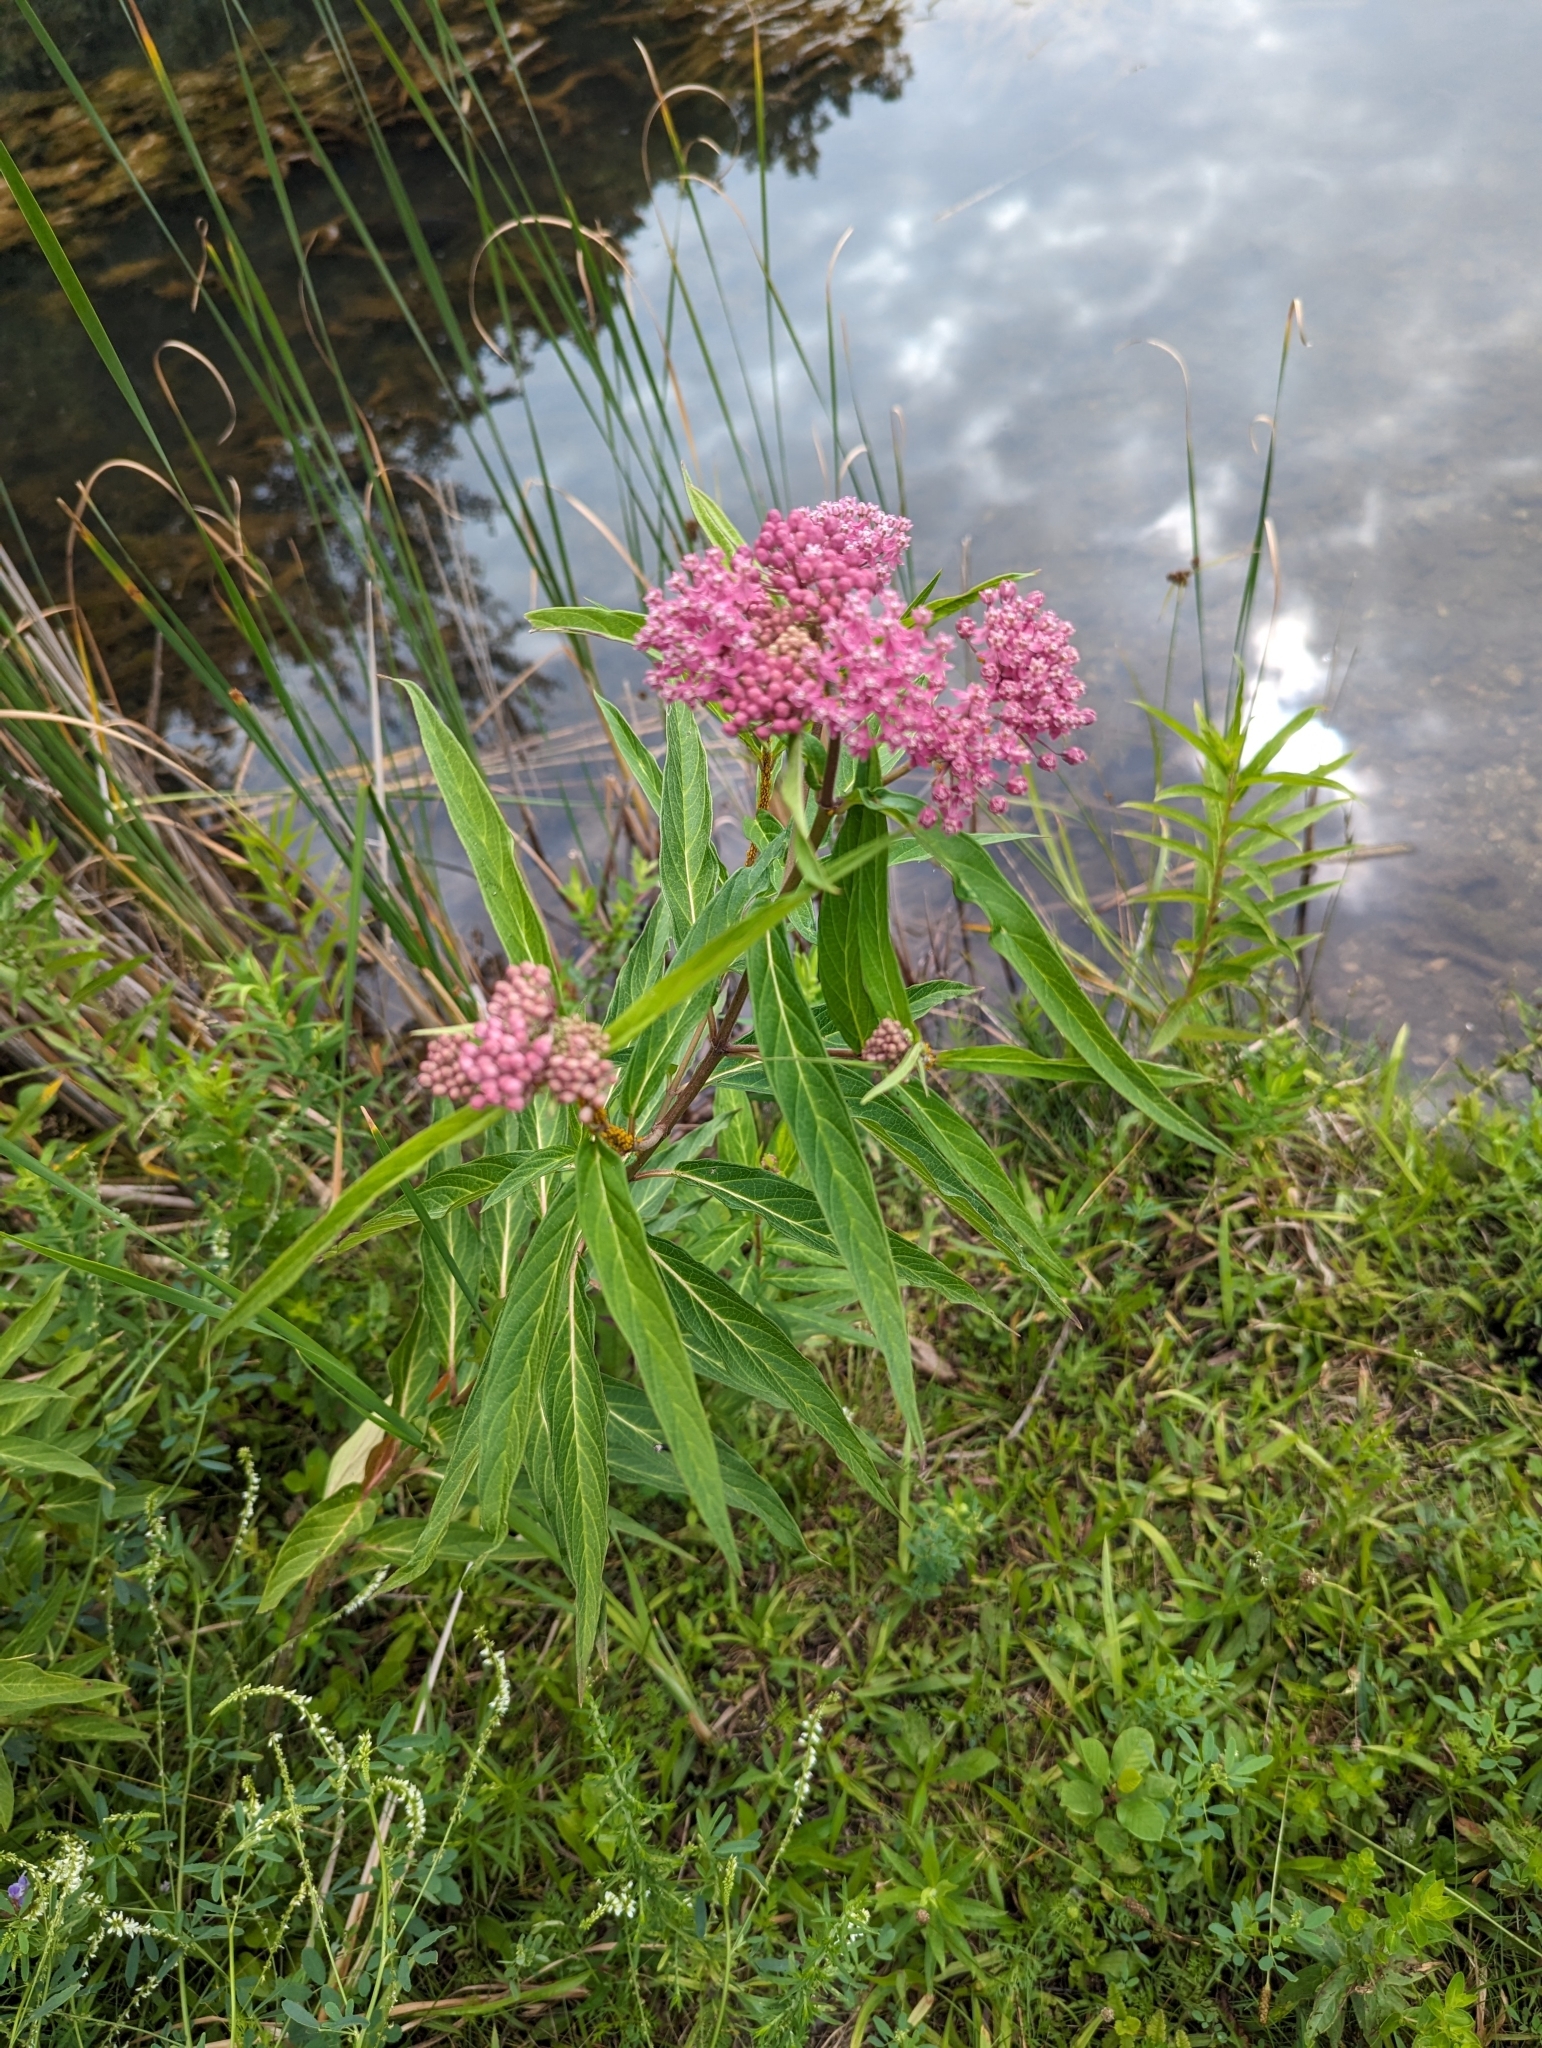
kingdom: Plantae
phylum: Tracheophyta
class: Magnoliopsida
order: Gentianales
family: Apocynaceae
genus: Asclepias
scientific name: Asclepias incarnata
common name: Swamp milkweed
